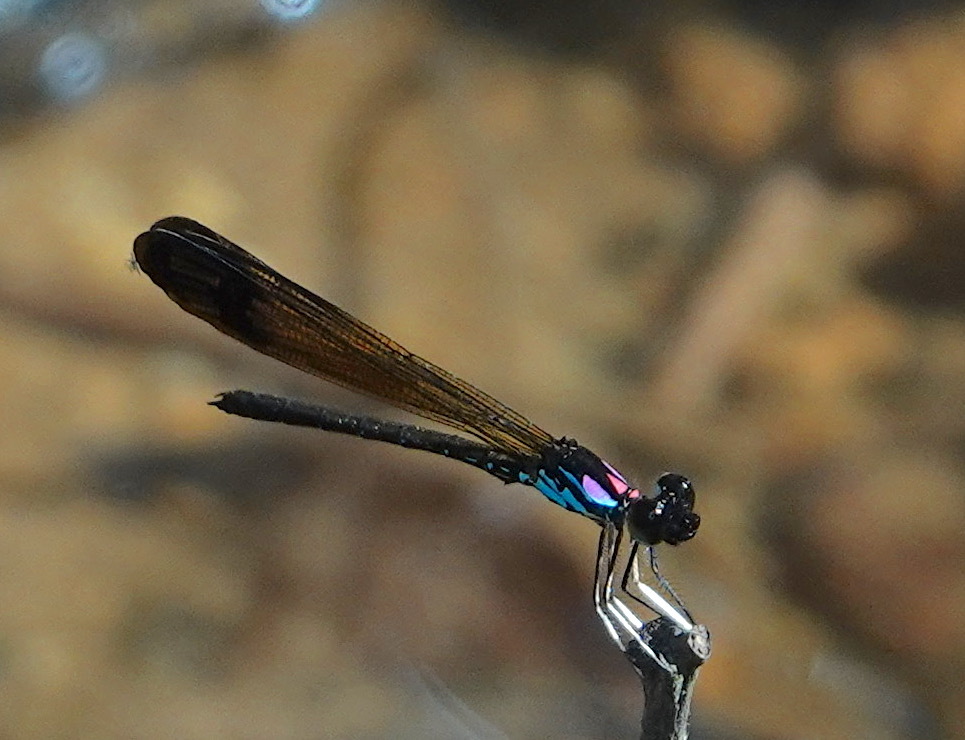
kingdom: Animalia
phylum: Arthropoda
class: Insecta
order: Odonata
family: Chlorocyphidae
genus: Heliocypha
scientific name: Heliocypha biforata
